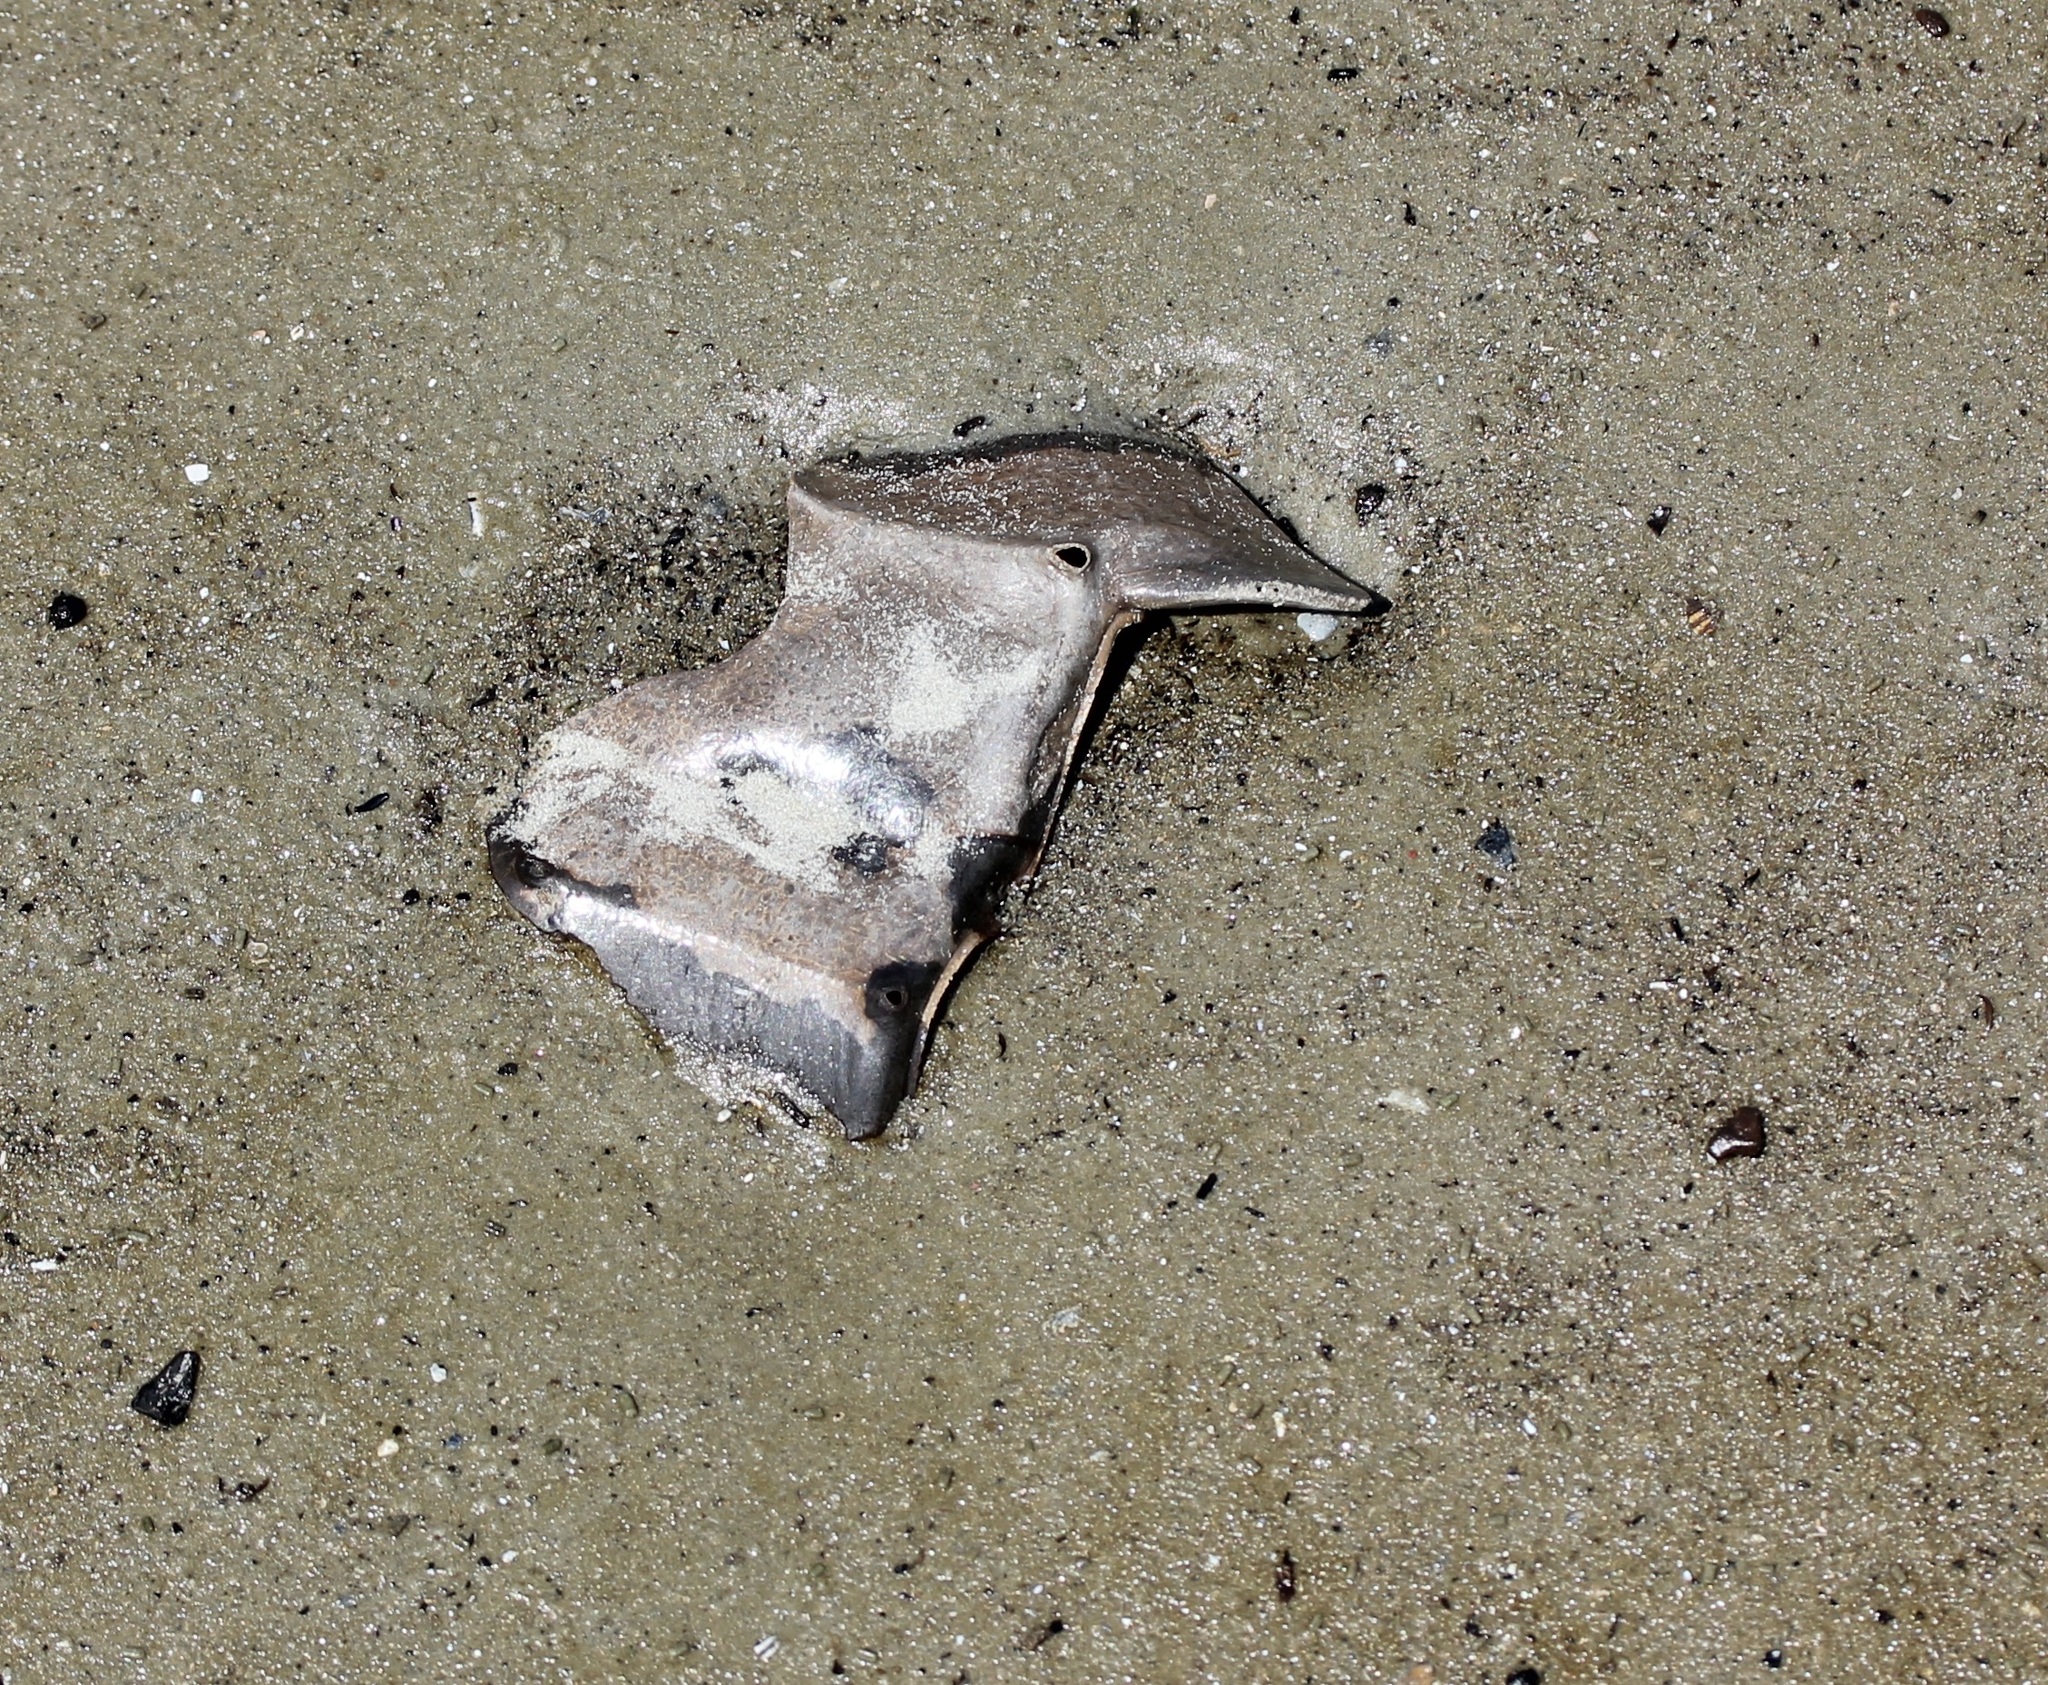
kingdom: Animalia
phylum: Arthropoda
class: Merostomata
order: Xiphosurida
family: Limulidae
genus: Limulus
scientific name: Limulus polyphemus
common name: Horseshoe crab
